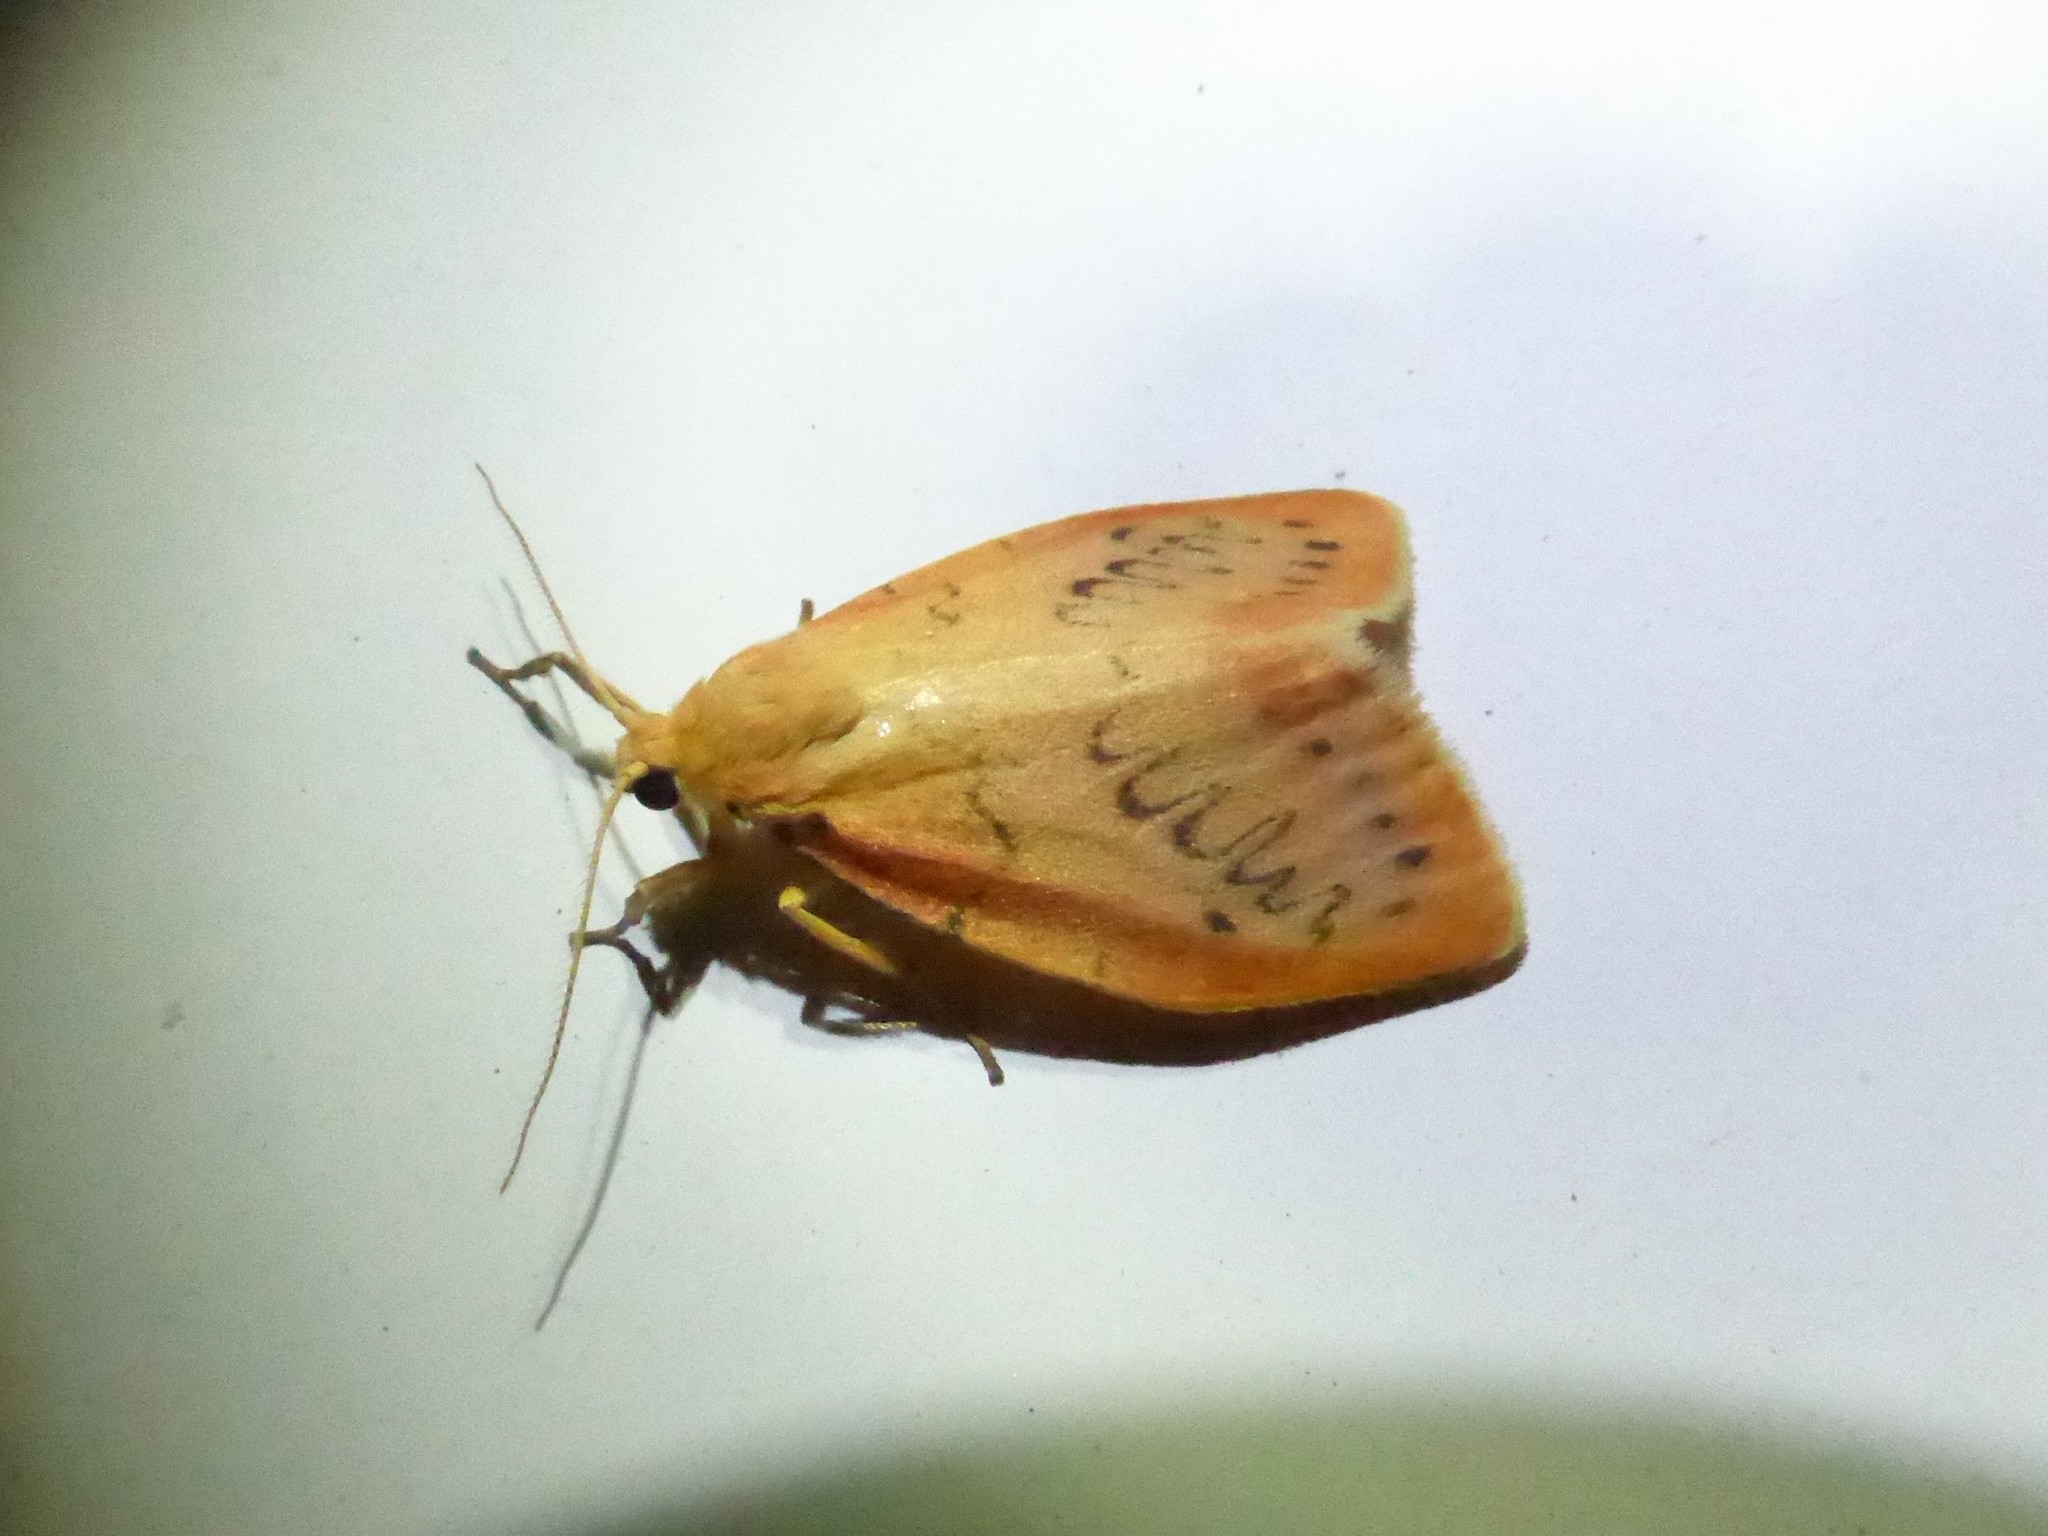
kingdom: Animalia
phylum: Arthropoda
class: Insecta
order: Lepidoptera
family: Erebidae
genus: Miltochrista
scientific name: Miltochrista miniata
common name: Rosy footman
